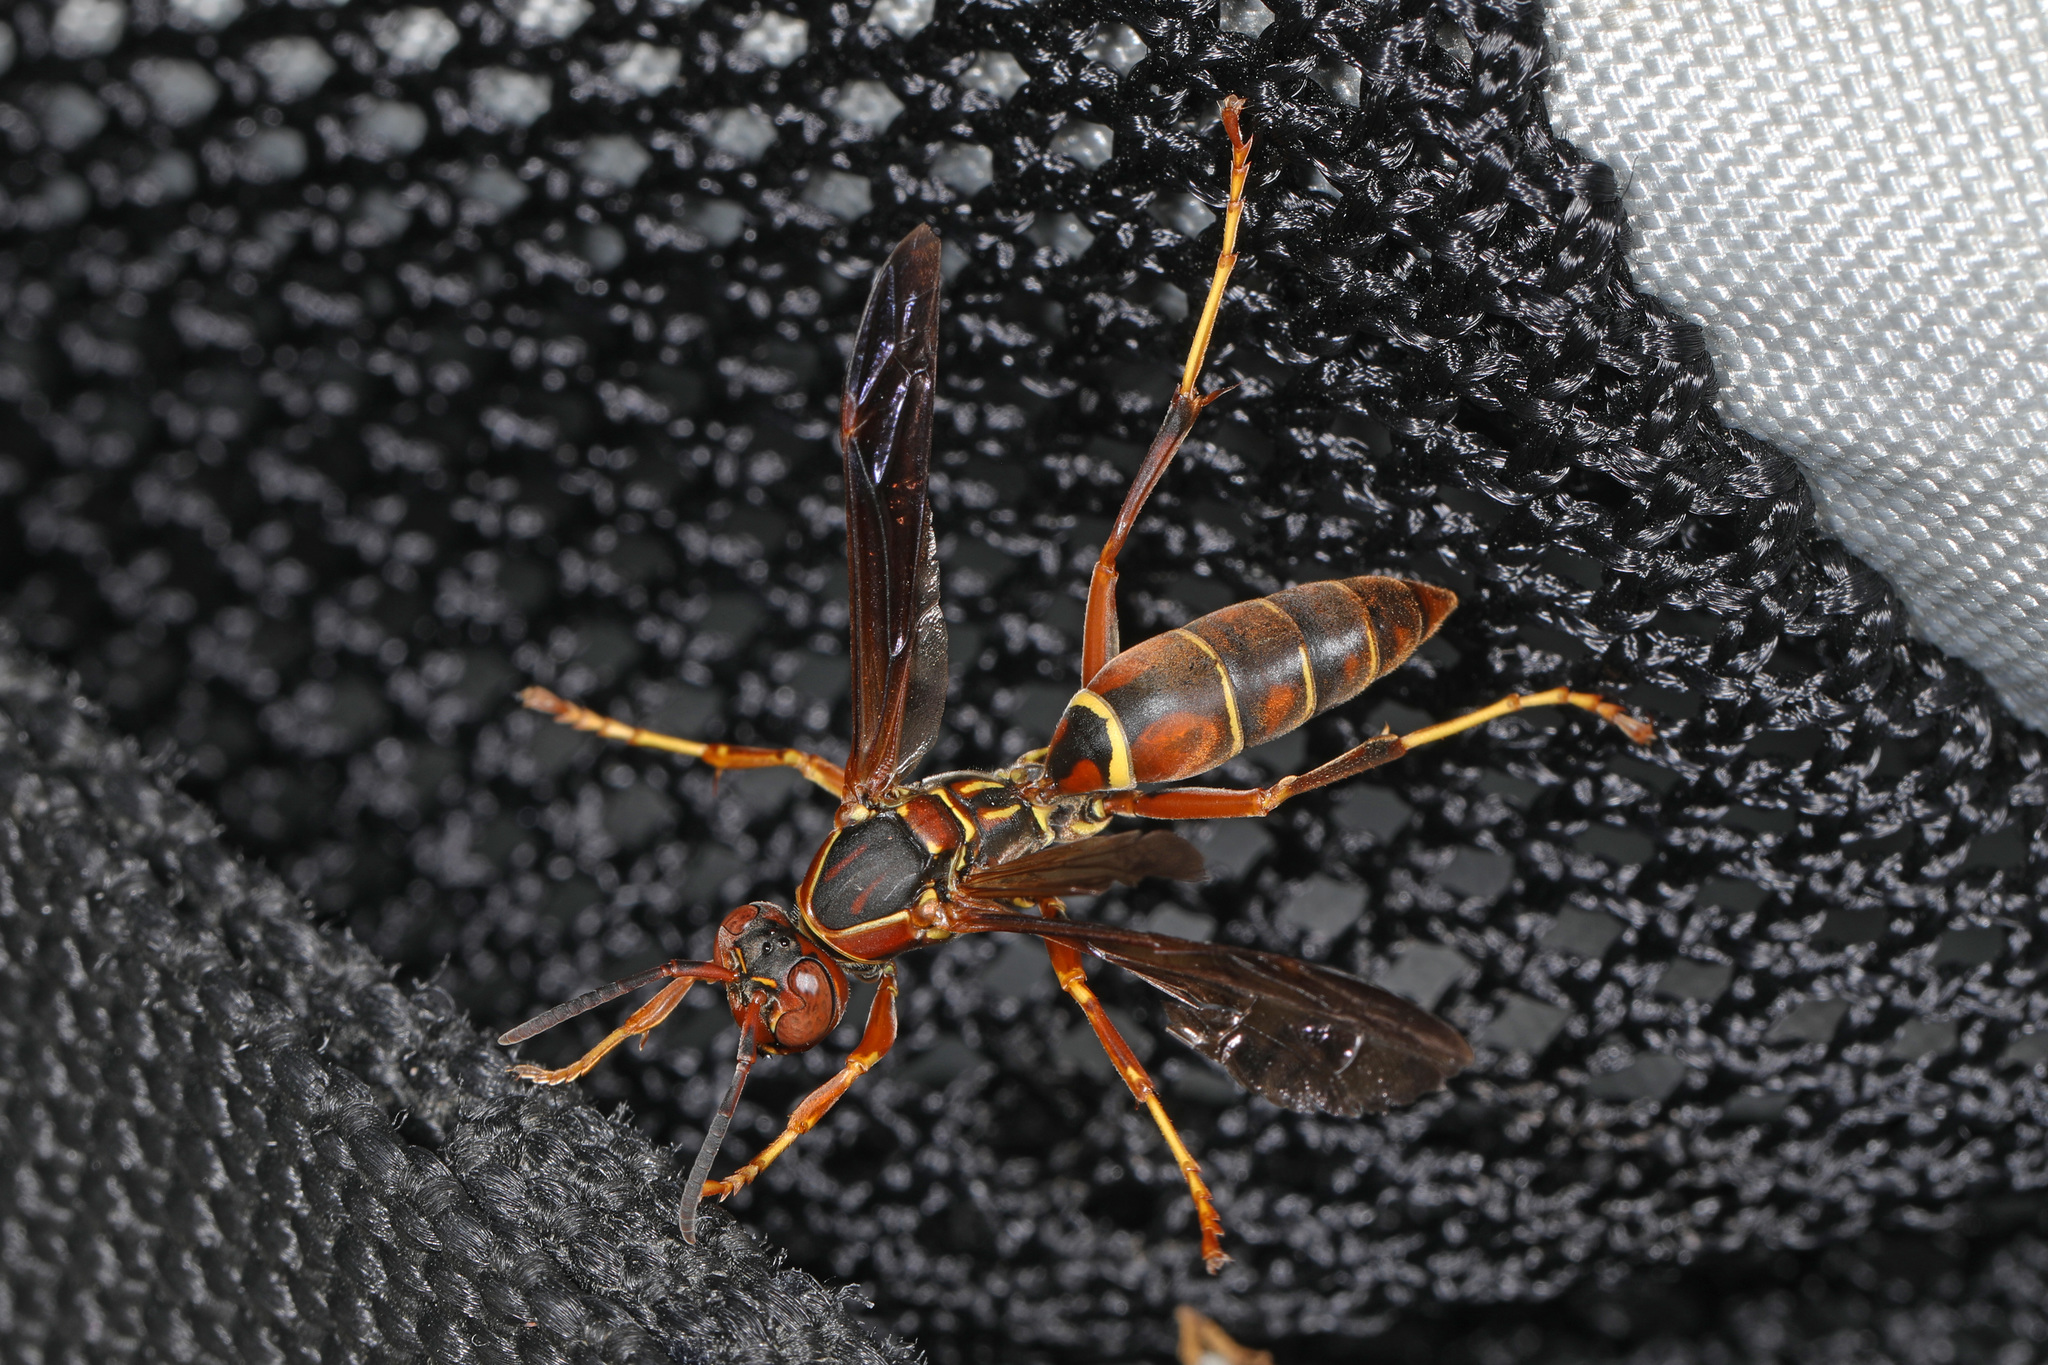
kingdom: Animalia
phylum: Arthropoda
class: Insecta
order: Hymenoptera
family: Eumenidae
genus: Polistes
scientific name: Polistes fuscatus
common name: Dark paper wasp
